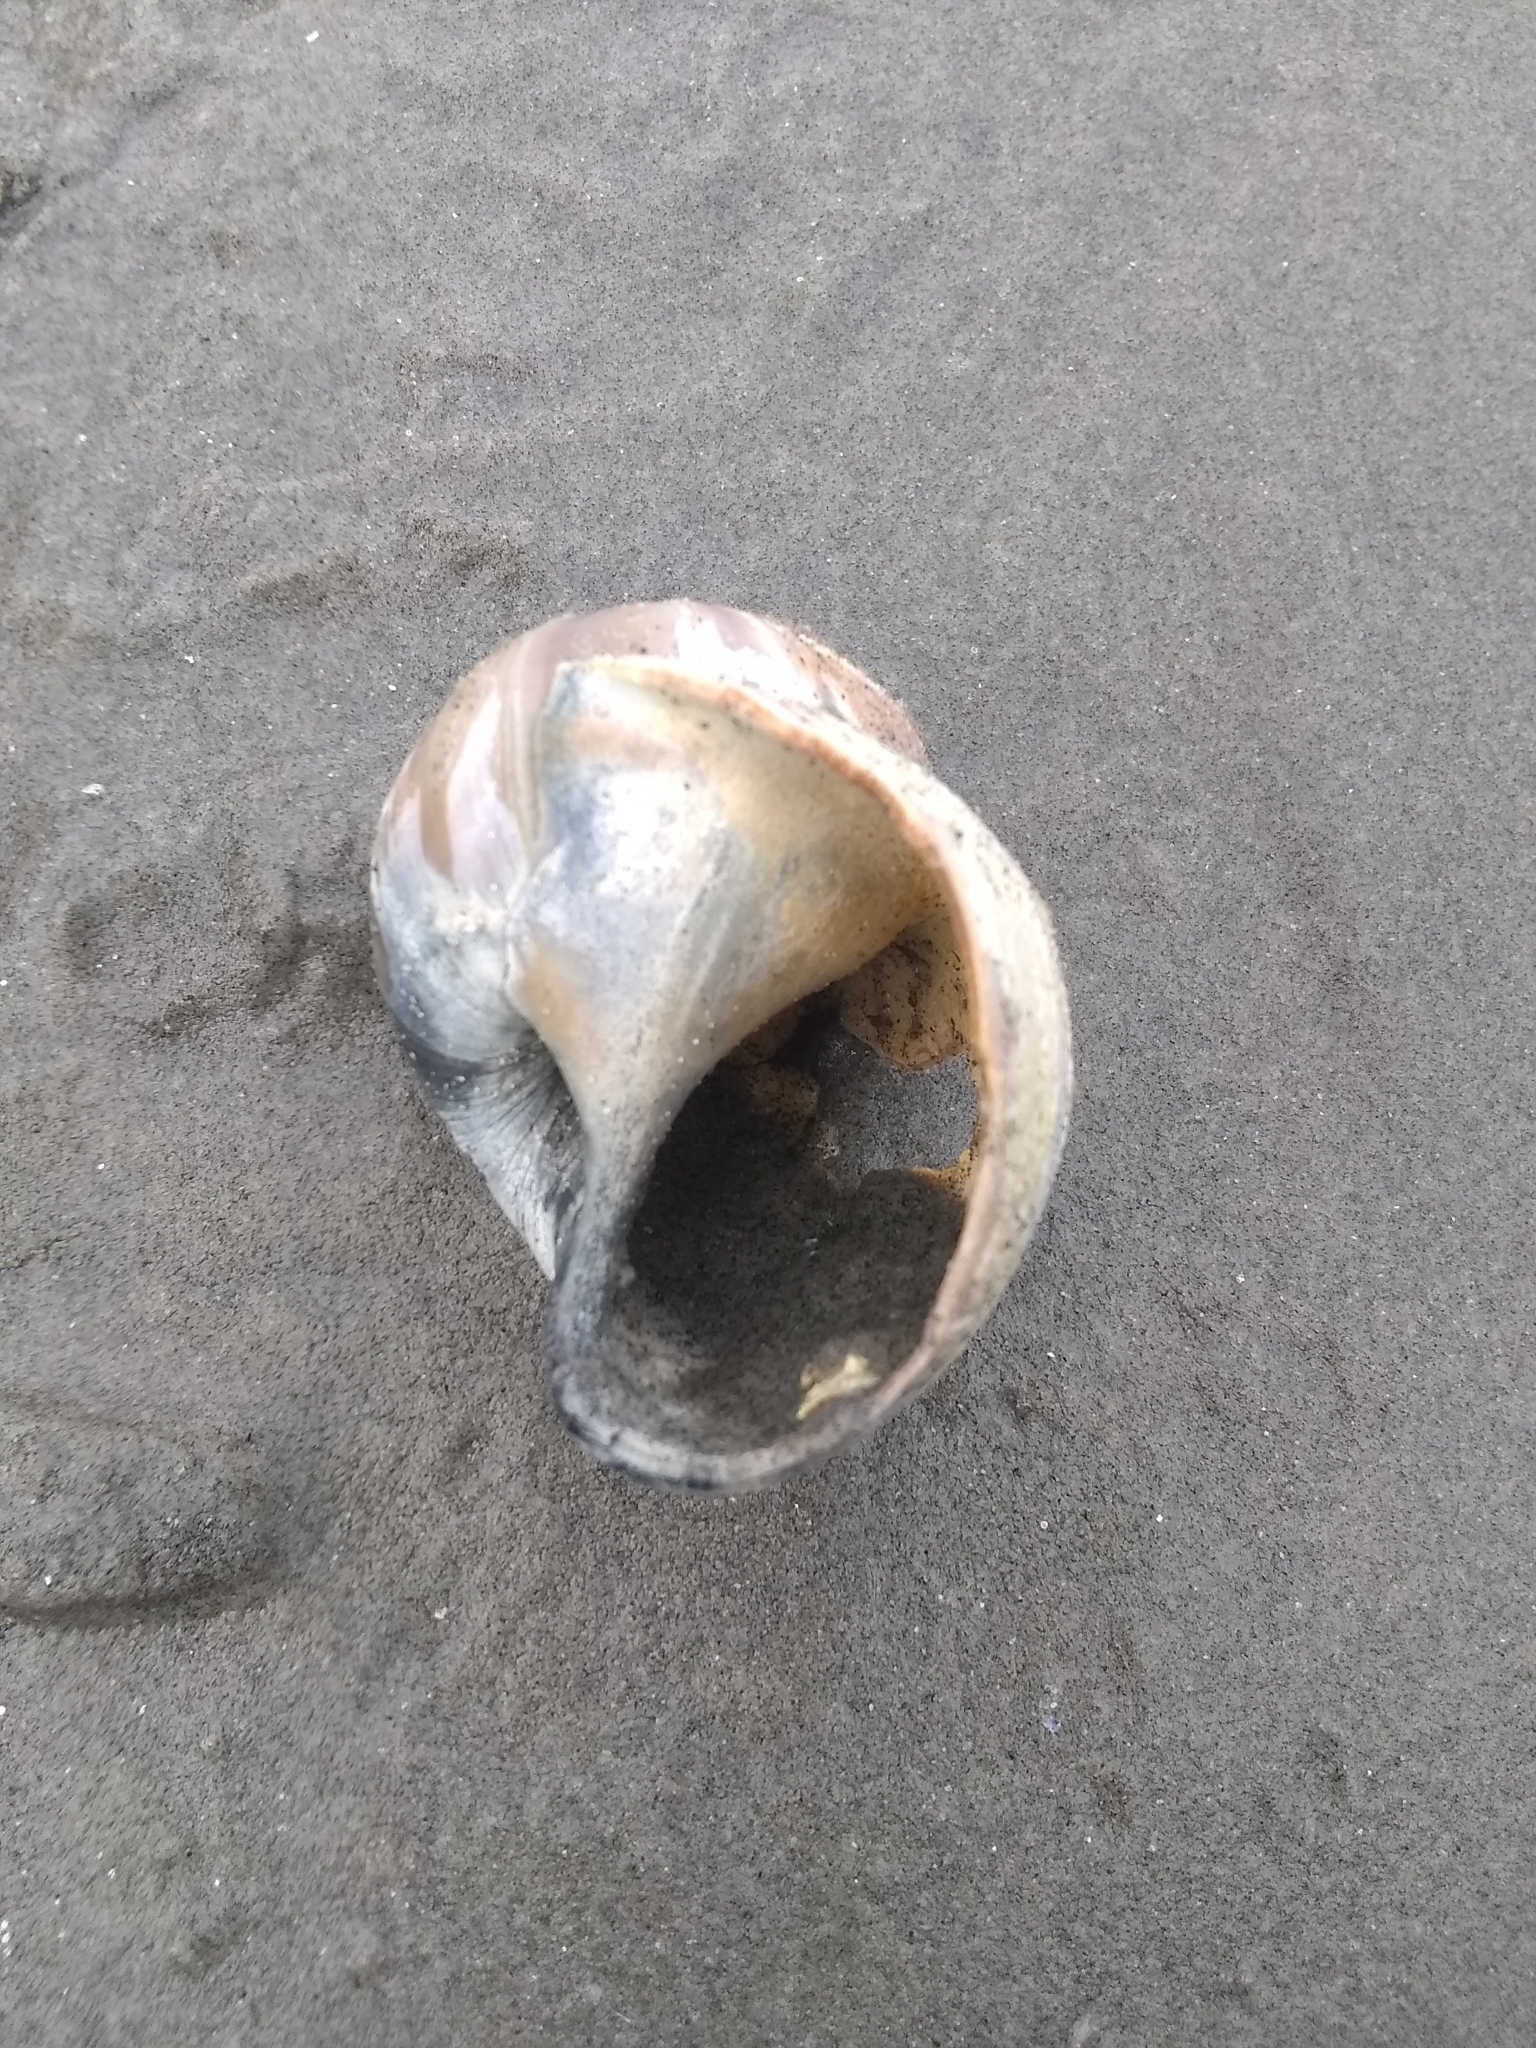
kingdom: Animalia
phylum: Mollusca
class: Gastropoda
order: Littorinimorpha
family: Naticidae
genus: Euspira
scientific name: Euspira heros
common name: Common northern moonsnail
